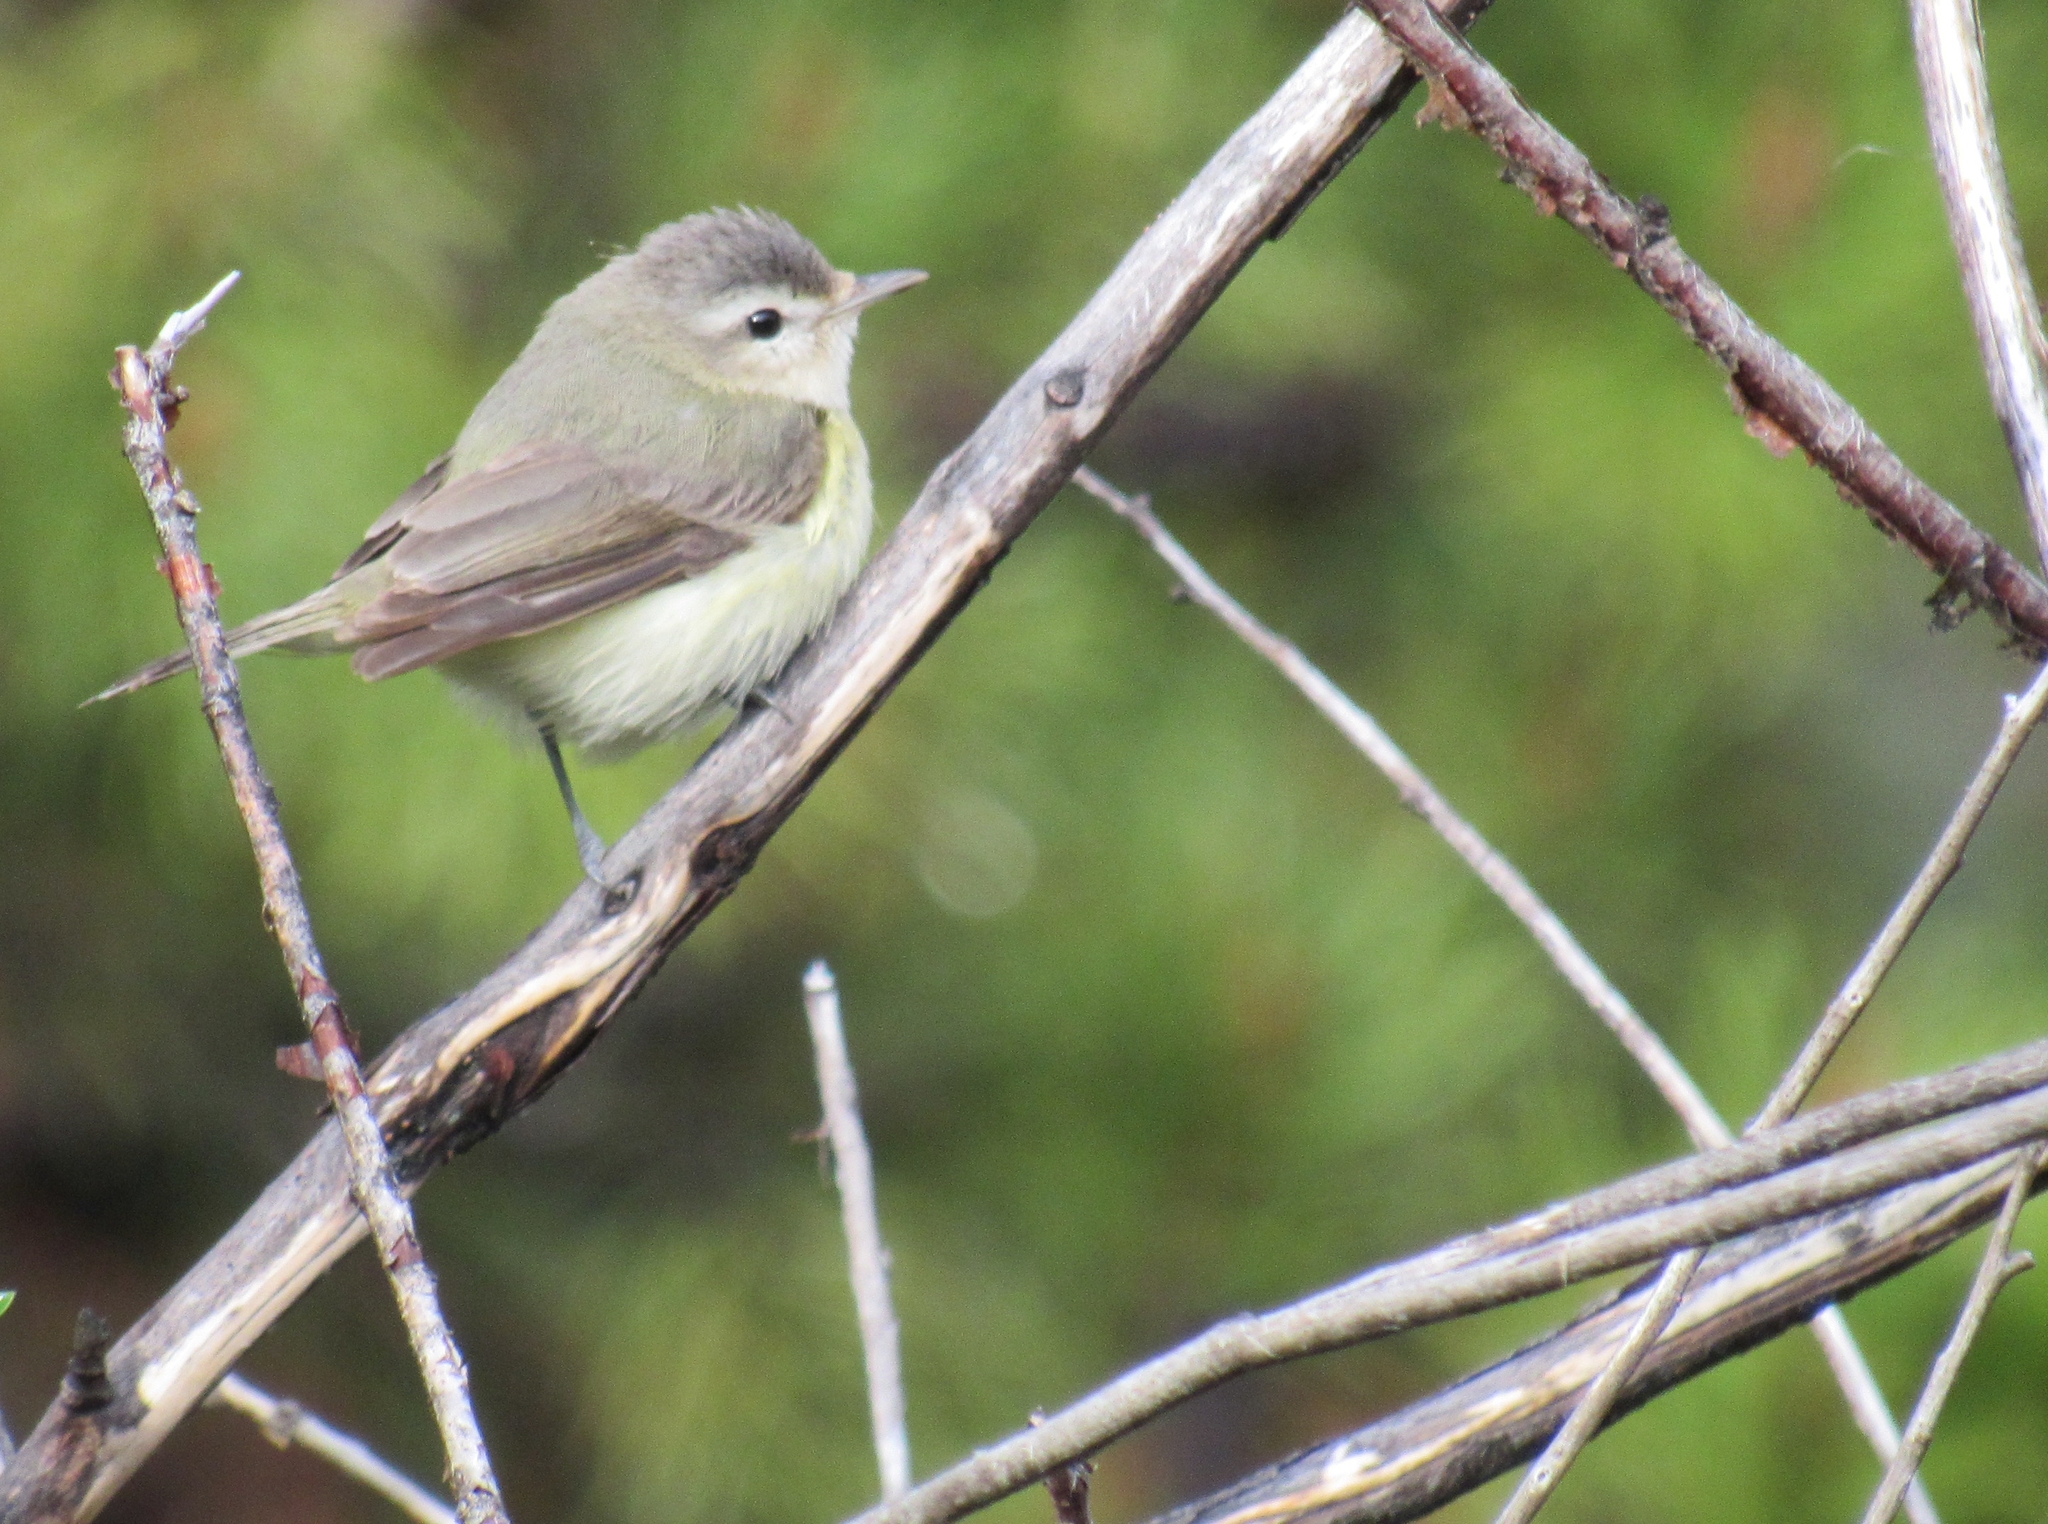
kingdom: Animalia
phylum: Chordata
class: Aves
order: Passeriformes
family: Vireonidae
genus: Vireo
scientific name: Vireo gilvus
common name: Warbling vireo
